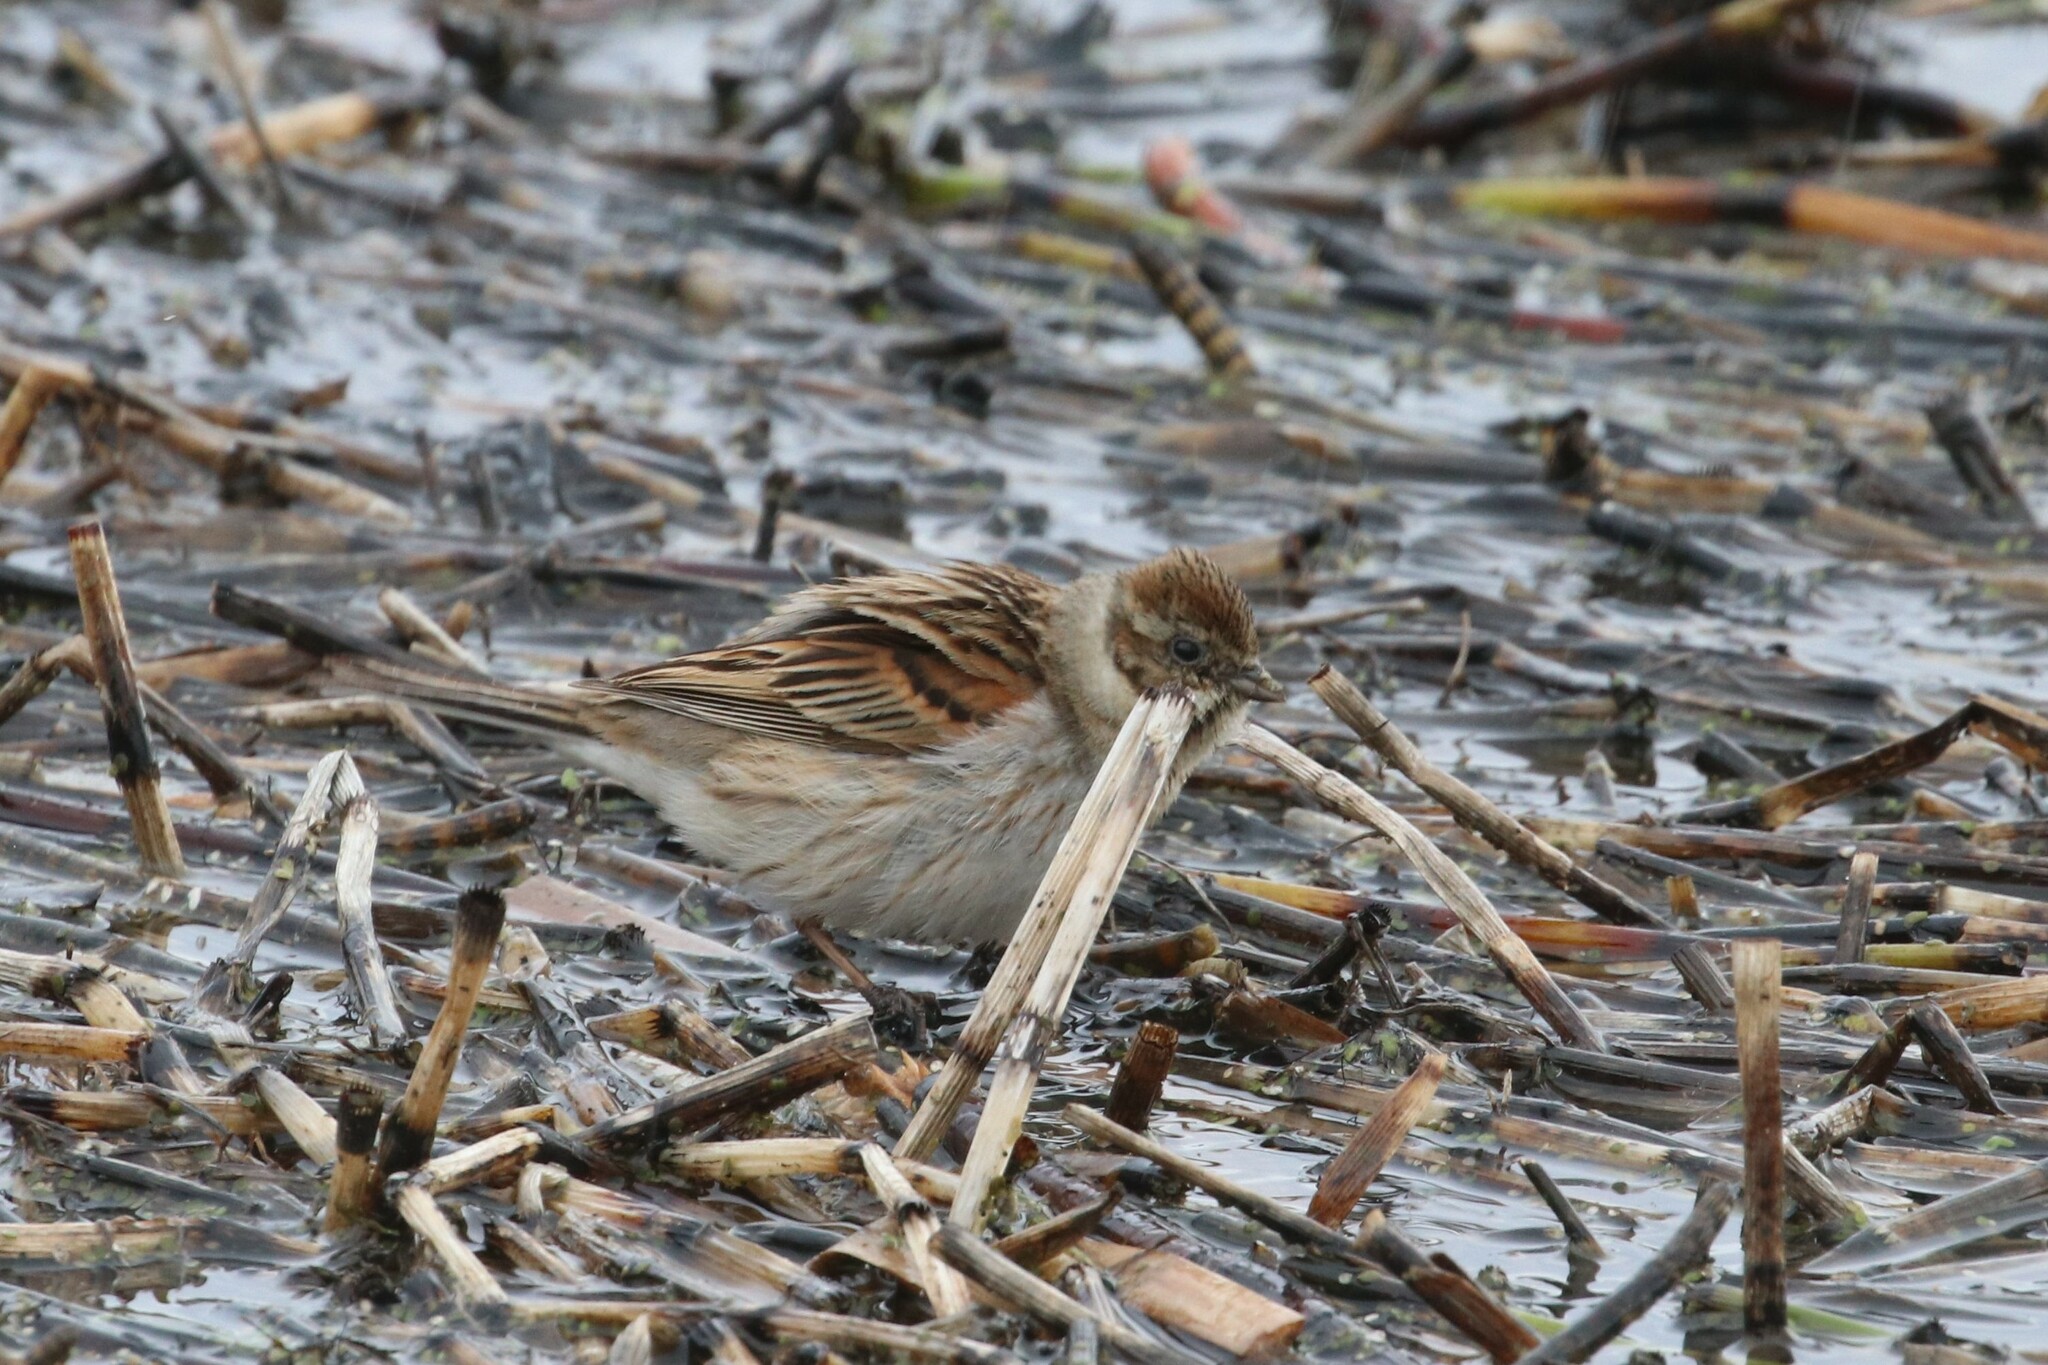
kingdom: Animalia
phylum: Chordata
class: Aves
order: Passeriformes
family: Emberizidae
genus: Emberiza
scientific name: Emberiza schoeniclus
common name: Reed bunting
